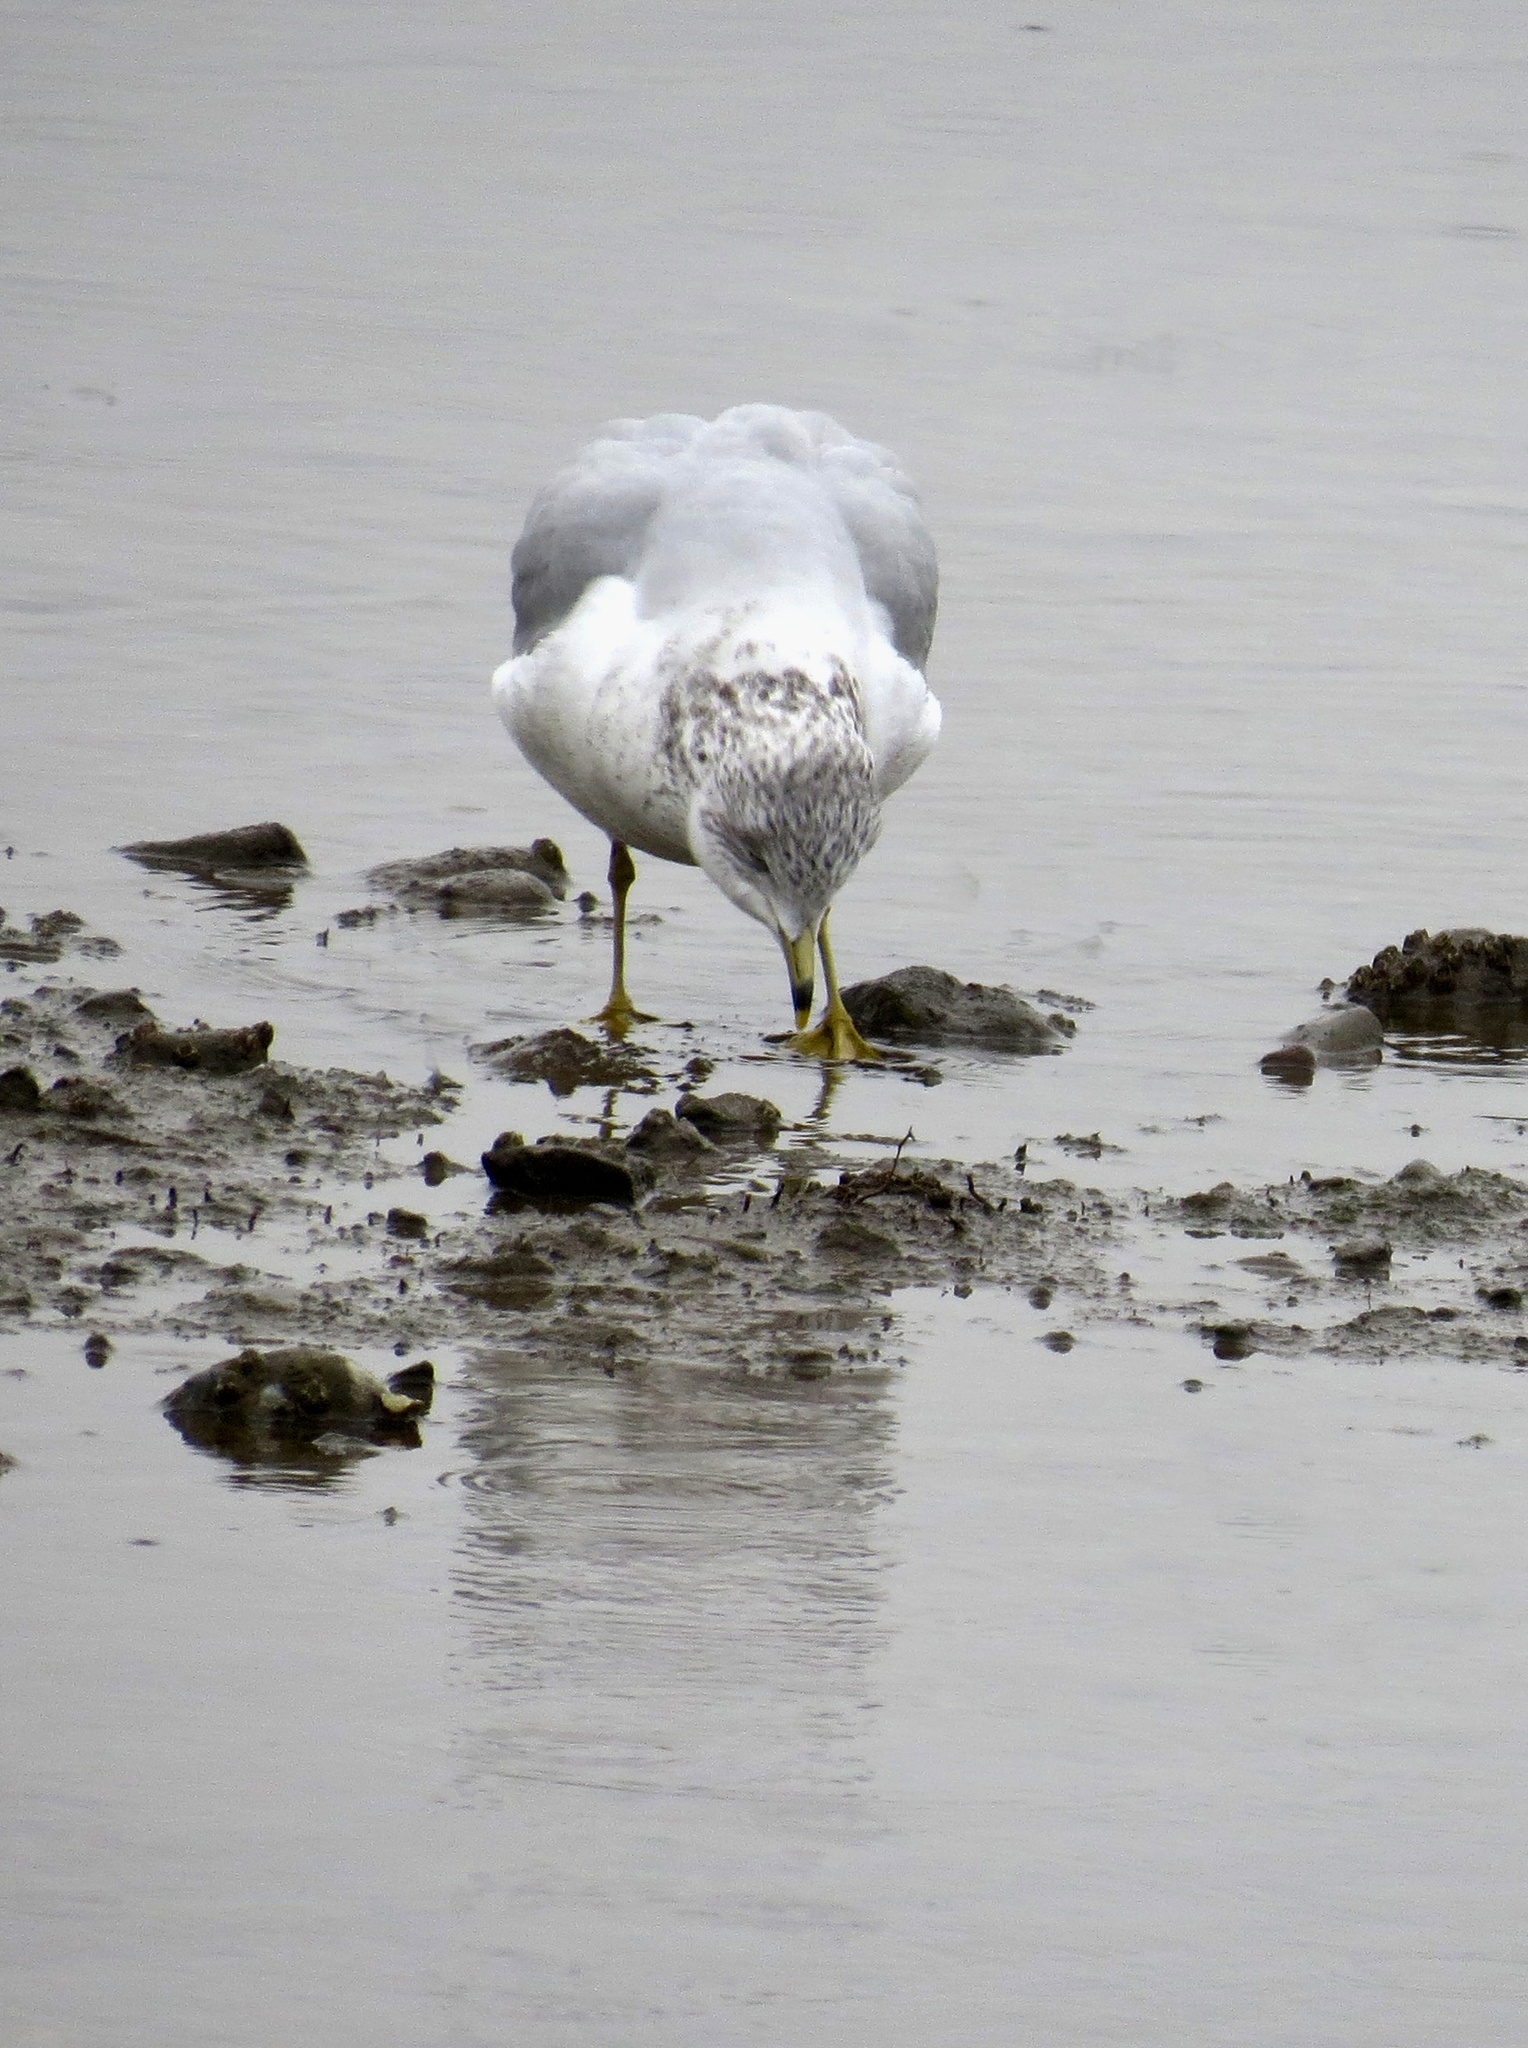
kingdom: Animalia
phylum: Chordata
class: Aves
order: Charadriiformes
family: Laridae
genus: Larus
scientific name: Larus delawarensis
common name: Ring-billed gull
